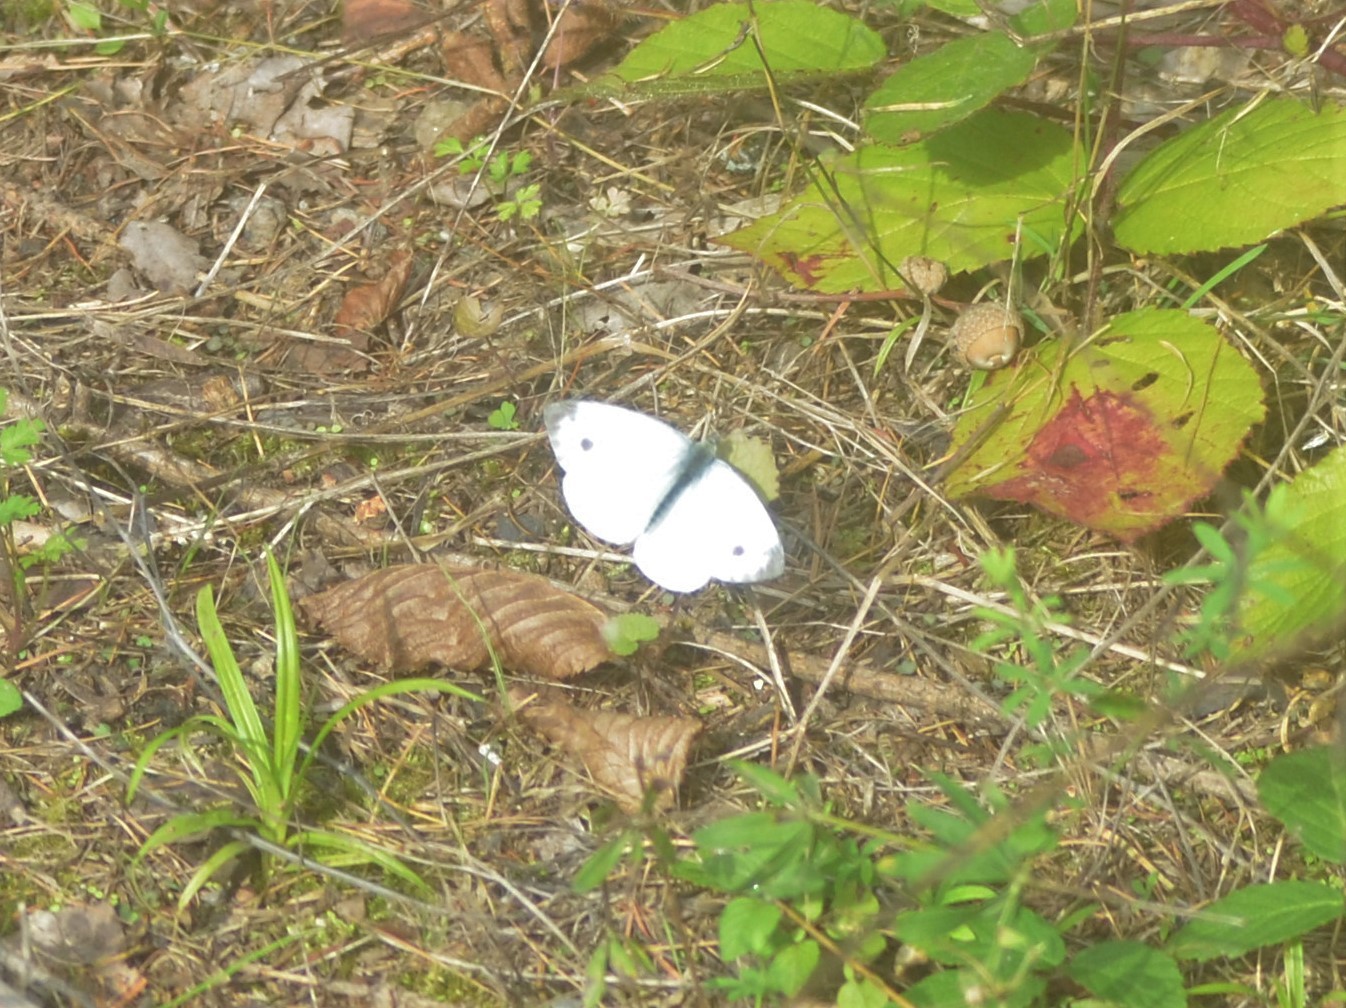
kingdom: Animalia
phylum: Arthropoda
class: Insecta
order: Lepidoptera
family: Pieridae
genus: Pieris
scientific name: Pieris napi
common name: Green-veined white
